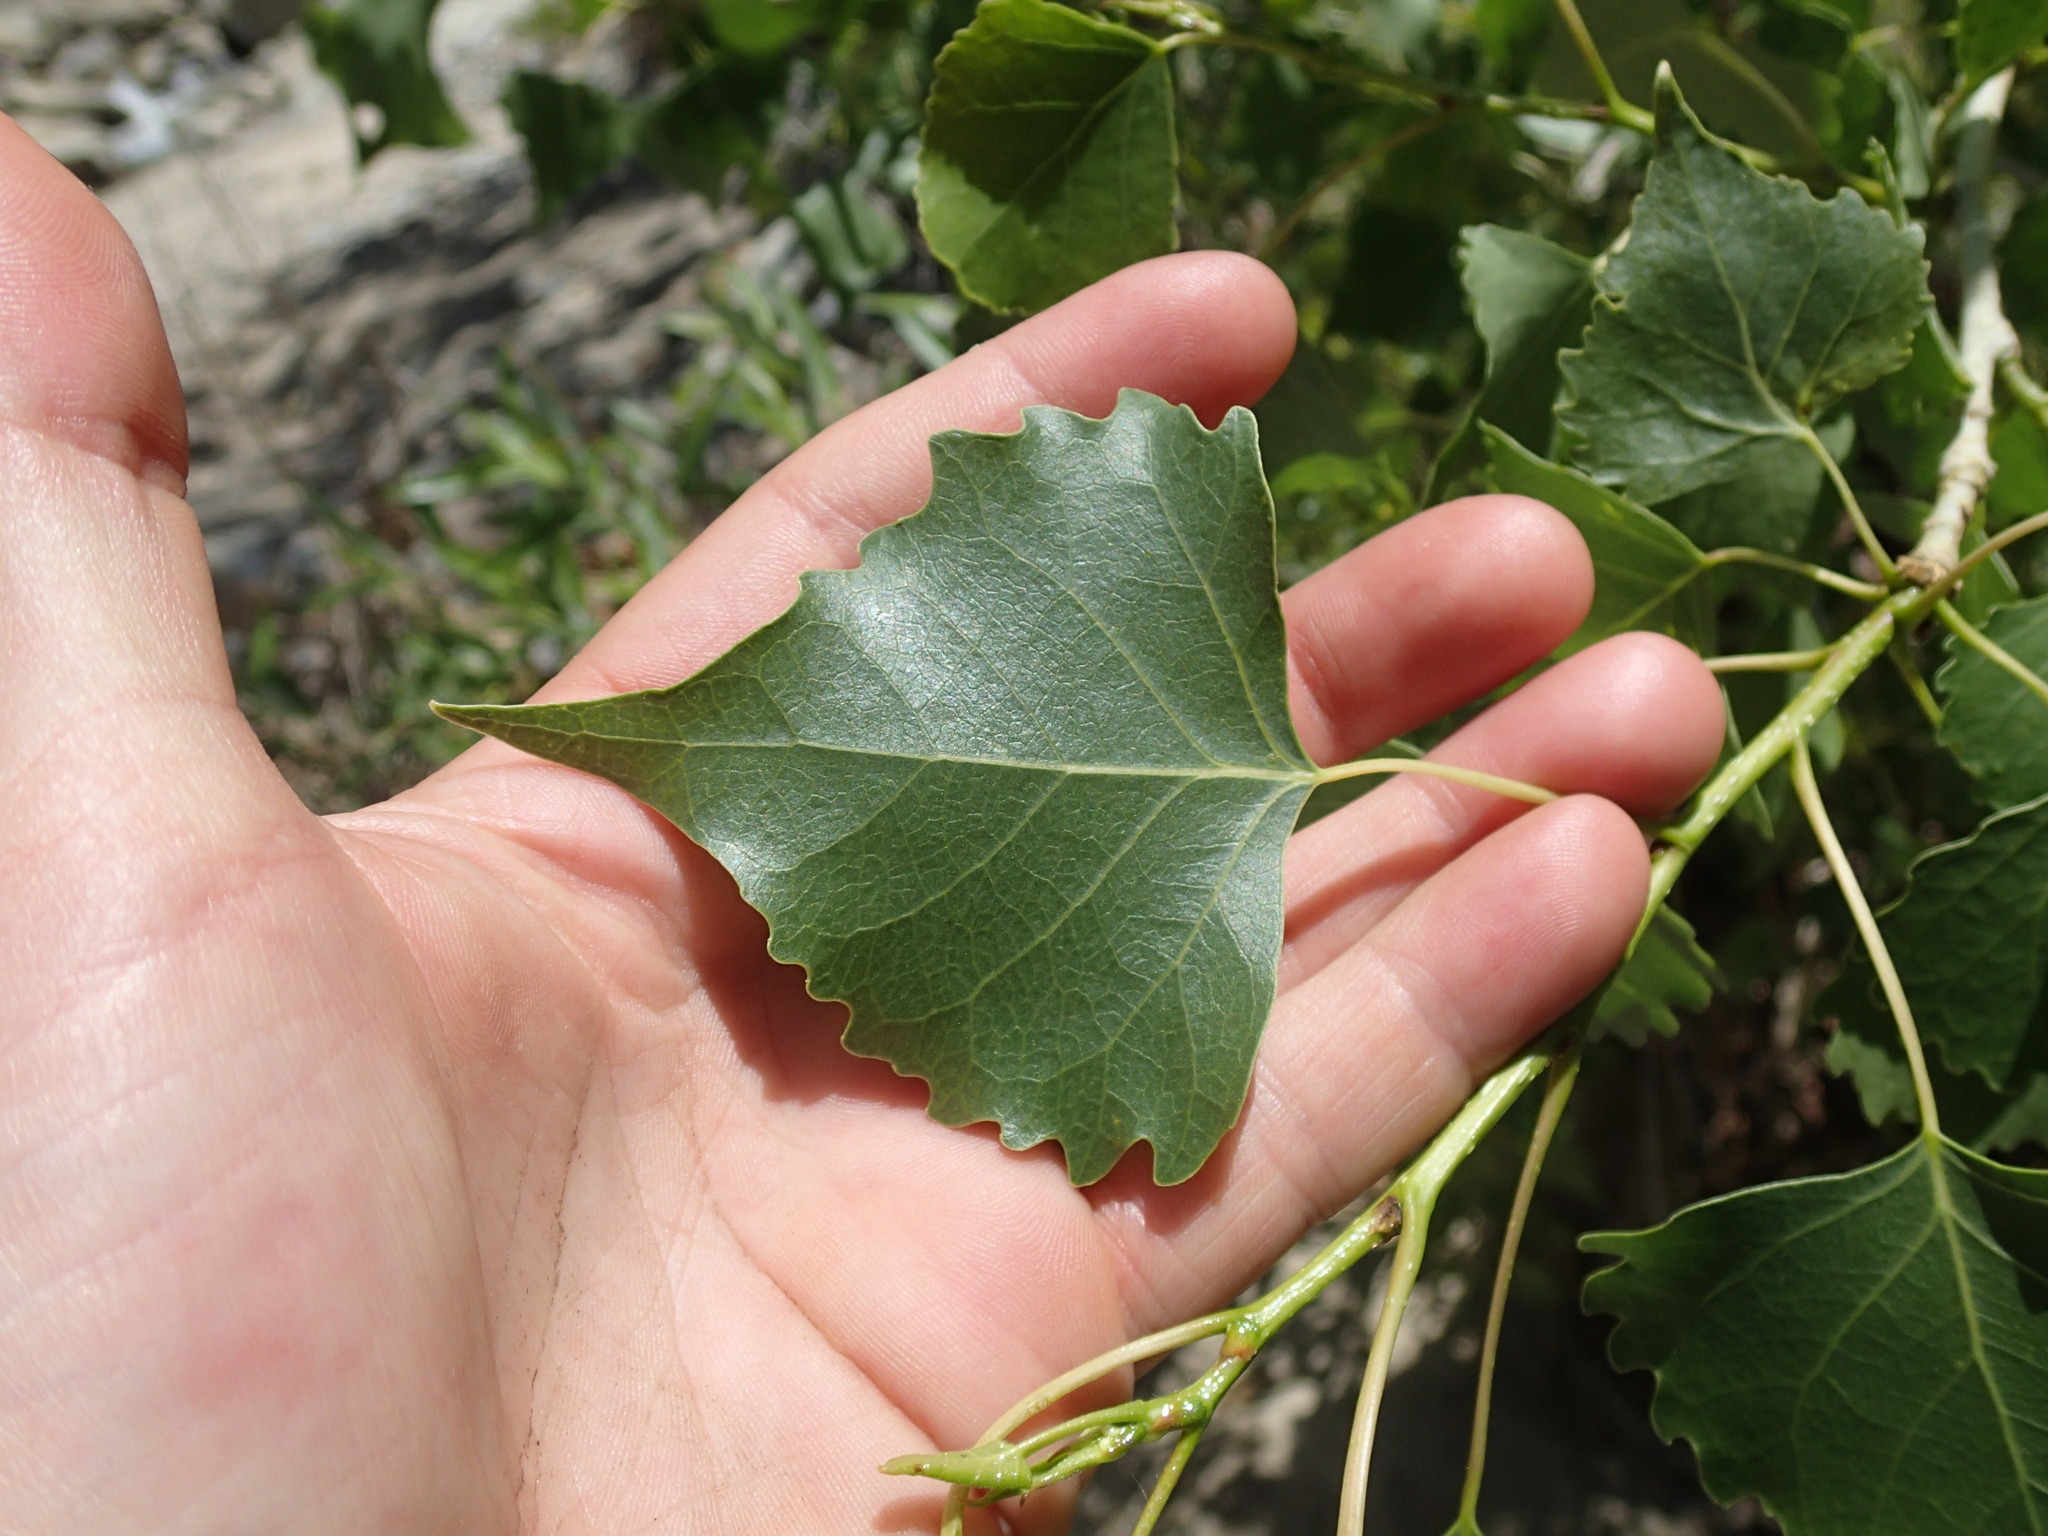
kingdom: Plantae
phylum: Tracheophyta
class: Magnoliopsida
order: Malpighiales
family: Salicaceae
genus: Populus
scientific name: Populus fremontii
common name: Fremont's cottonwood
